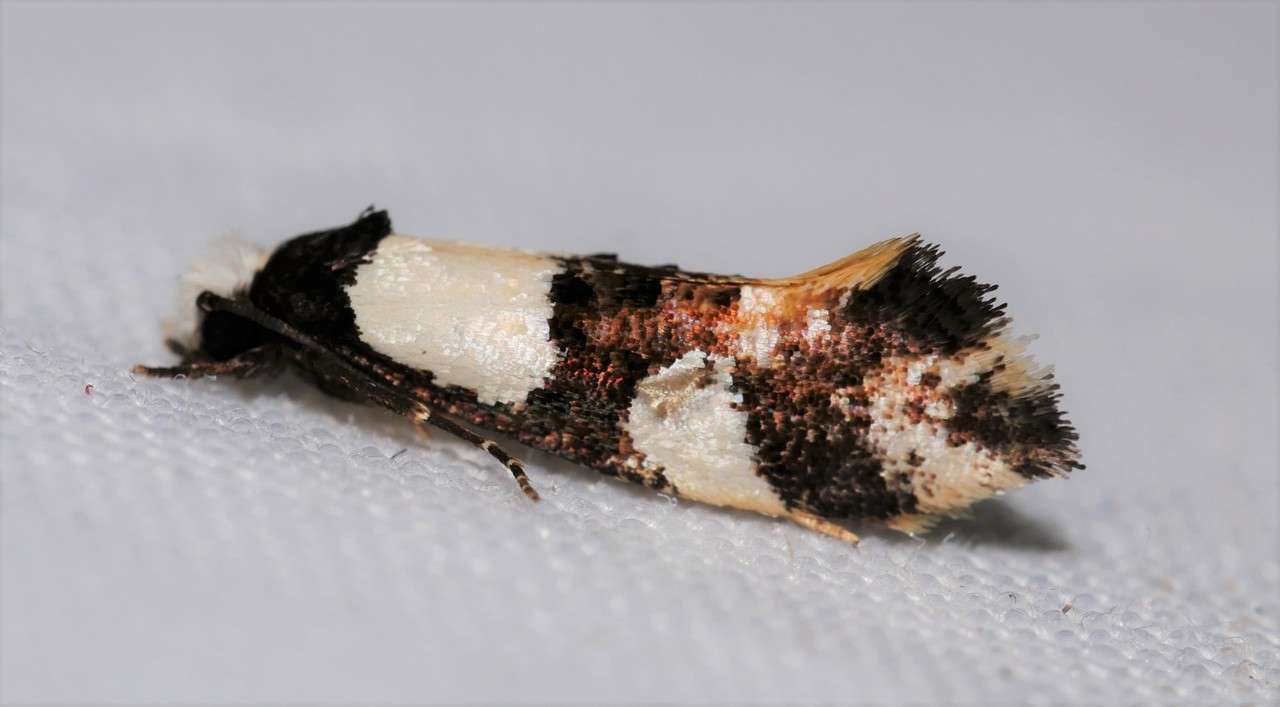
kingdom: Animalia
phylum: Arthropoda
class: Insecta
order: Lepidoptera
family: Tineidae
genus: Monopis
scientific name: Monopis icterogastra
